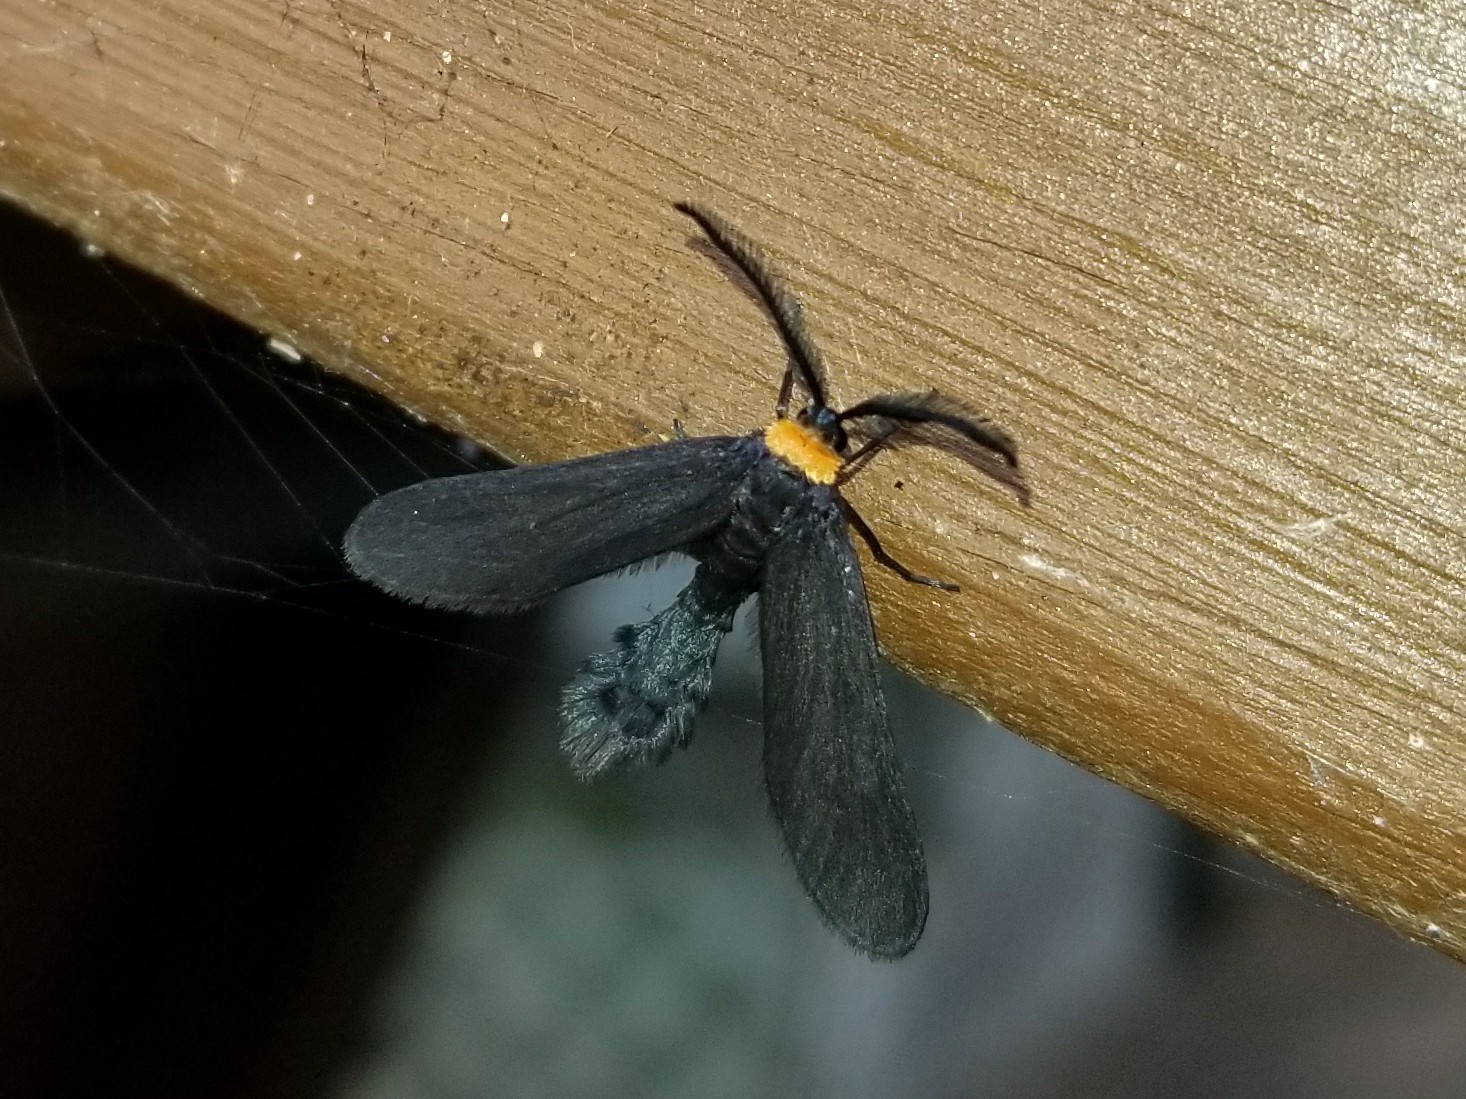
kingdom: Animalia
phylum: Arthropoda
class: Insecta
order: Lepidoptera
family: Zygaenidae
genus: Harrisina
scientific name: Harrisina americana
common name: Grapeleaf skeletonizer moth
